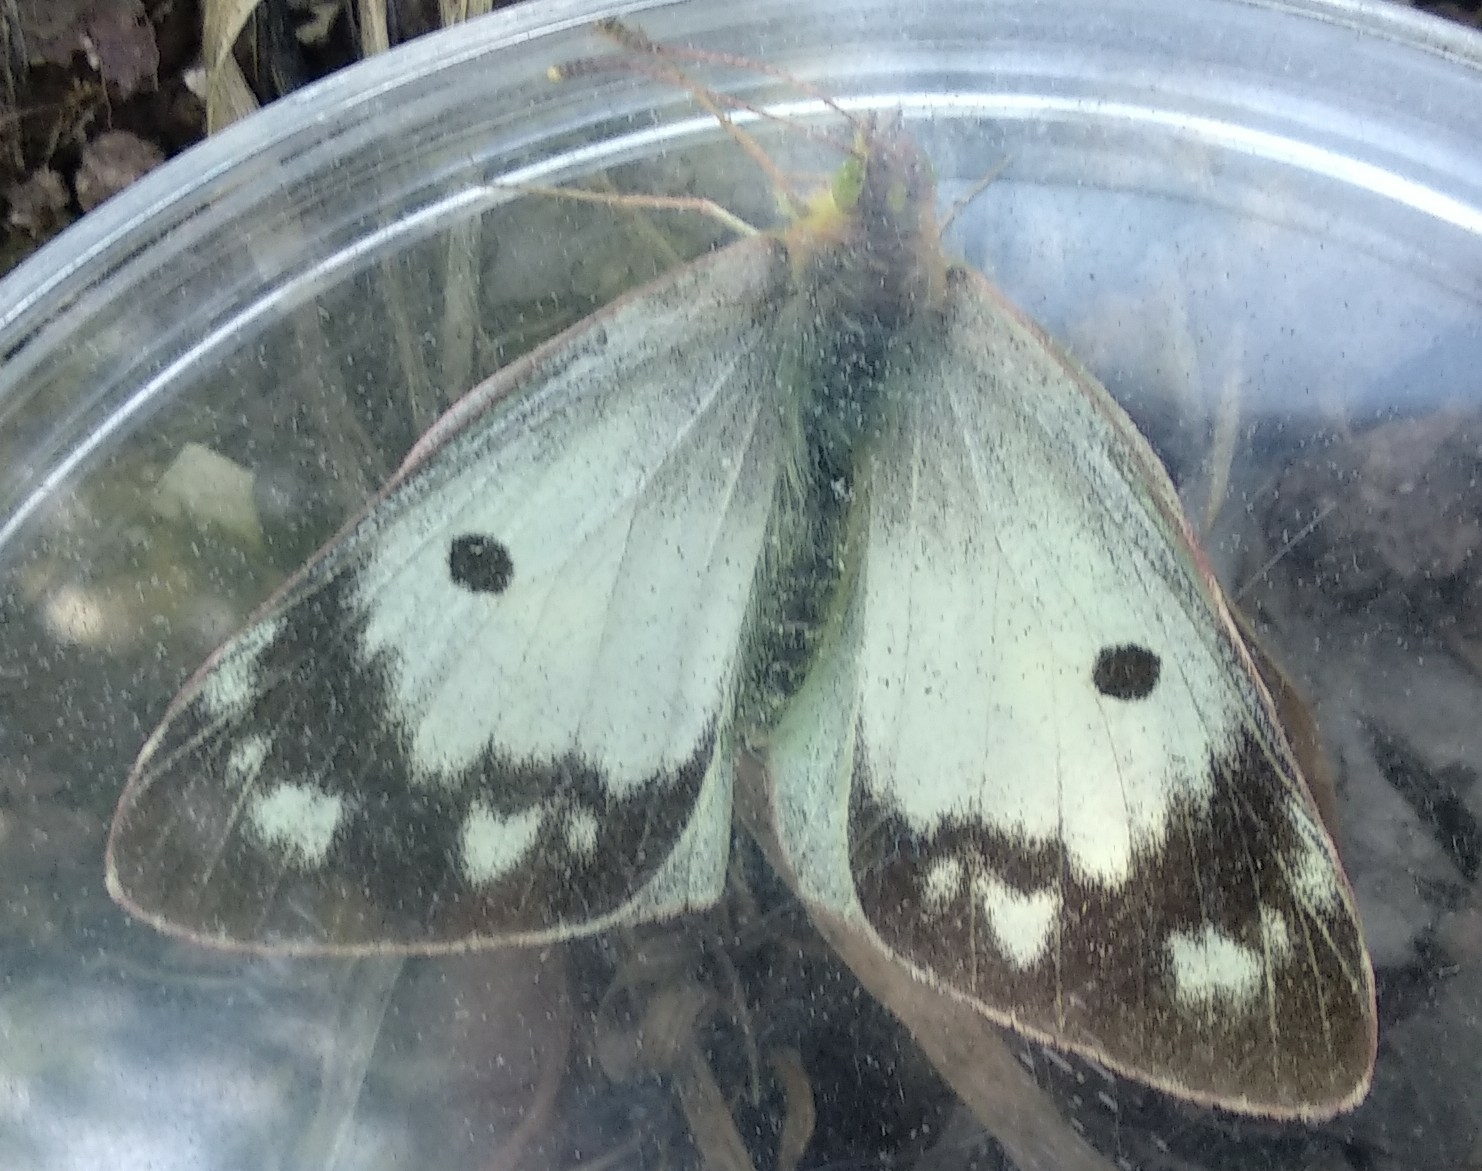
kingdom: Animalia
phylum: Arthropoda
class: Insecta
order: Lepidoptera
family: Pieridae
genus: Colias
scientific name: Colias croceus
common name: Clouded yellow
